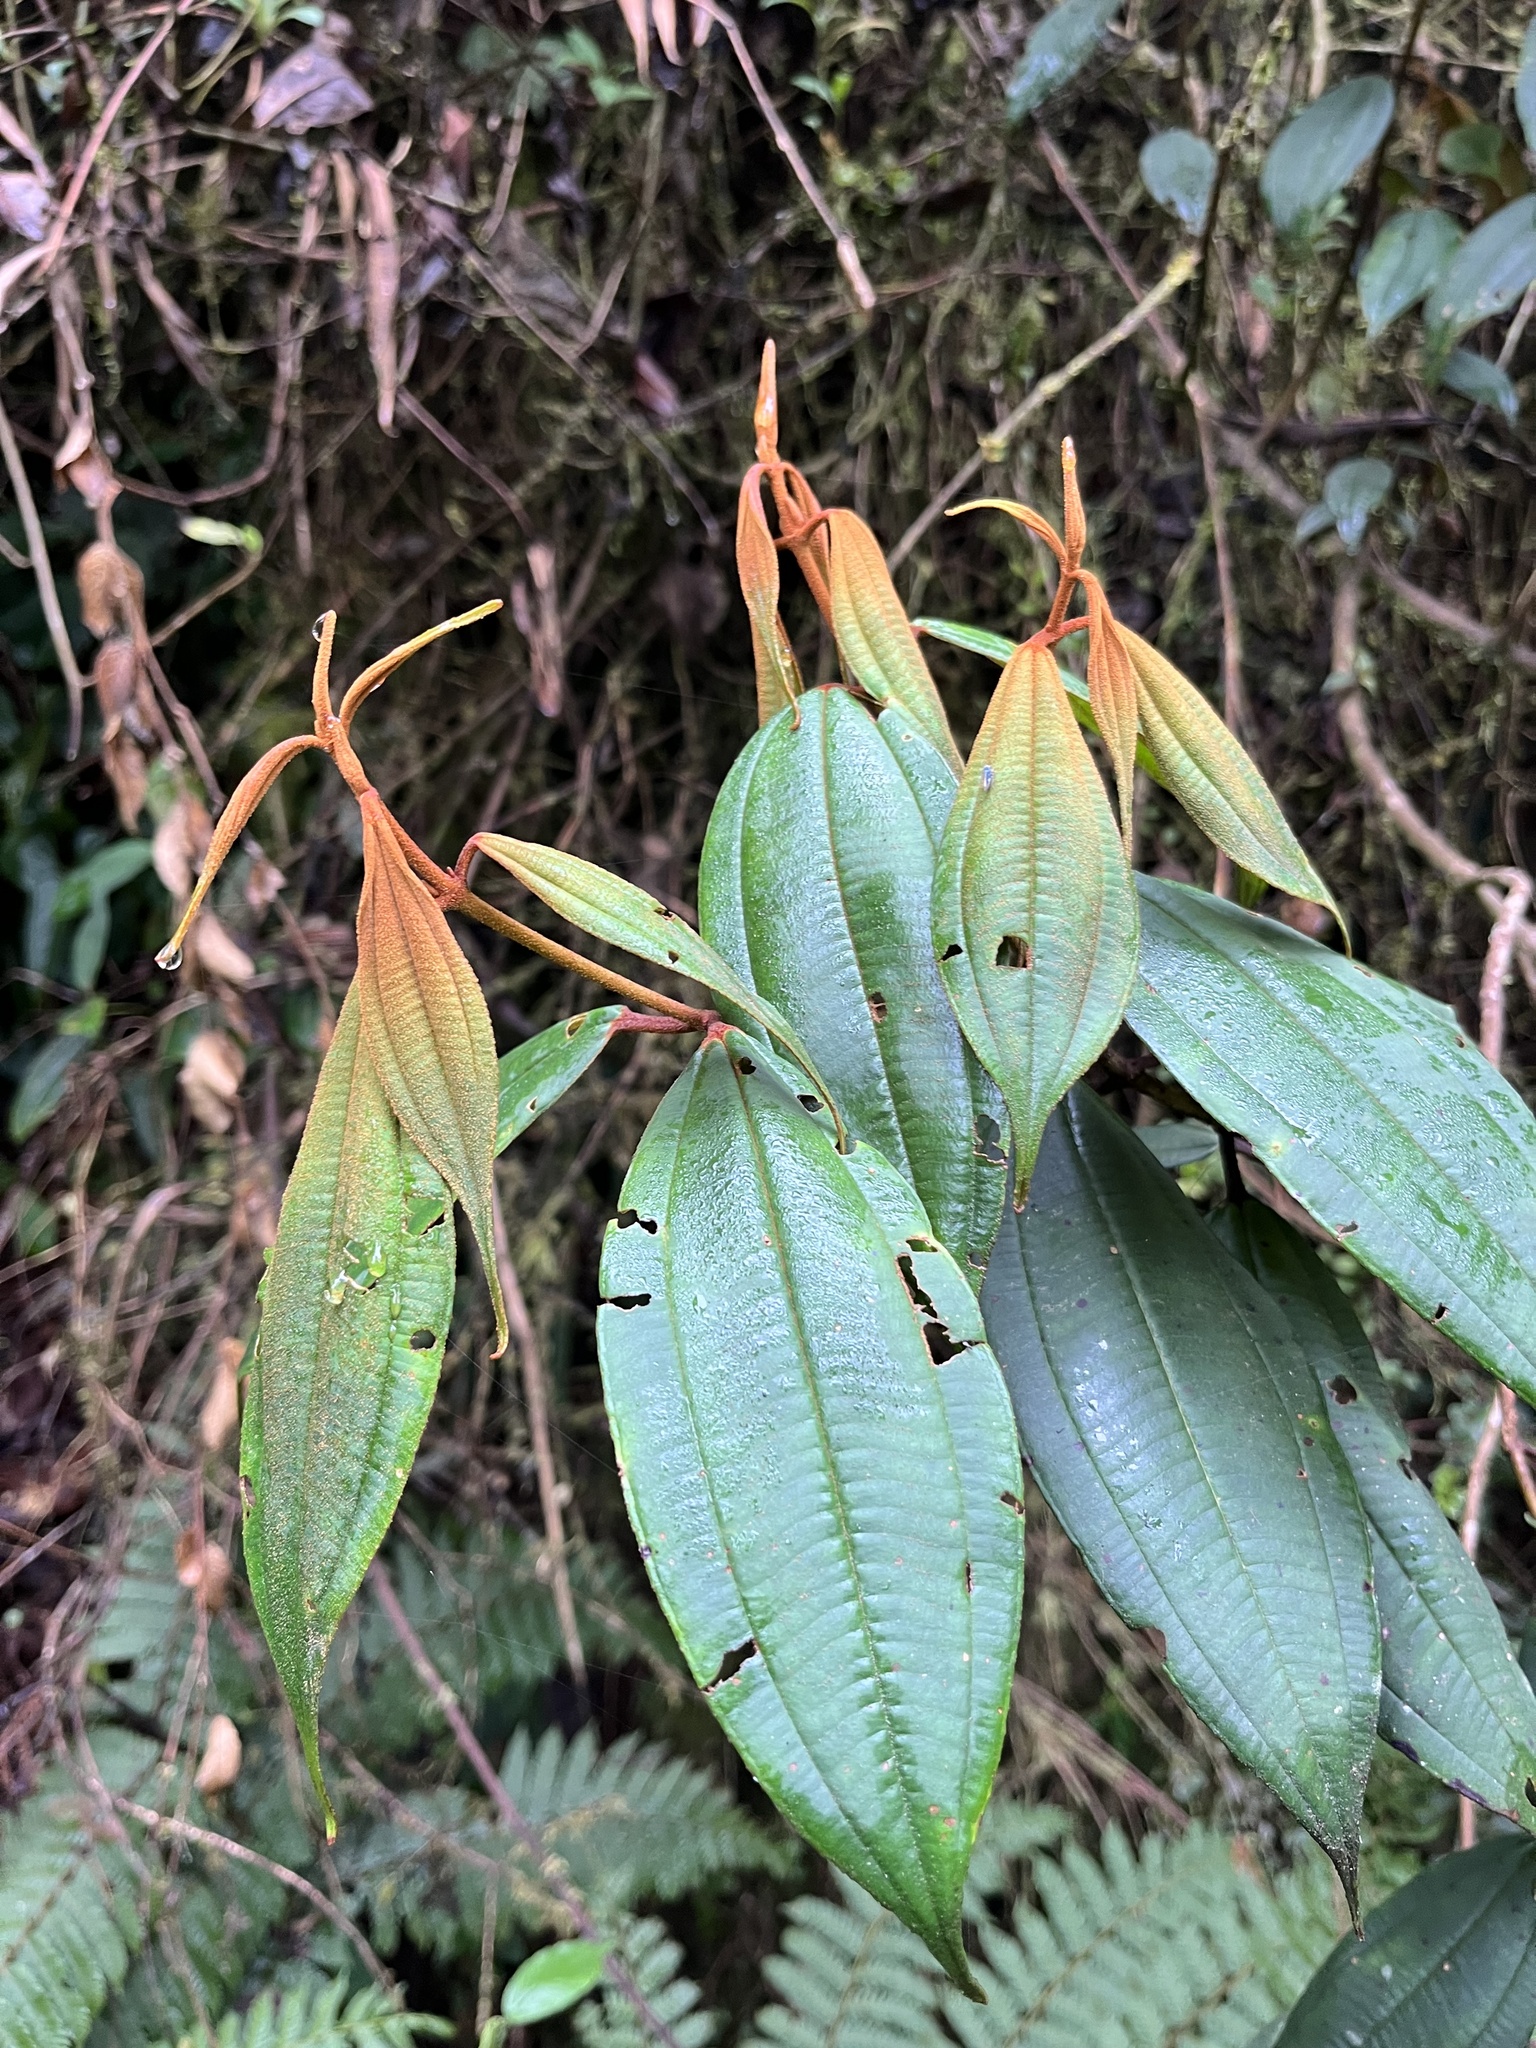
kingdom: Plantae
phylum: Tracheophyta
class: Magnoliopsida
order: Myrtales
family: Melastomataceae
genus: Miconia
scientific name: Miconia miocarpa
